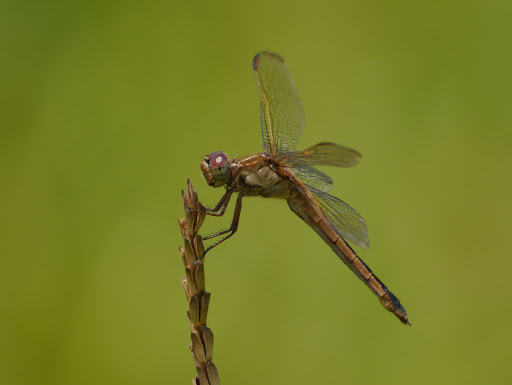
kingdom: Animalia
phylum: Arthropoda
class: Insecta
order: Odonata
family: Libellulidae
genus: Libellula
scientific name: Libellula needhami
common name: Needham's skimmer
